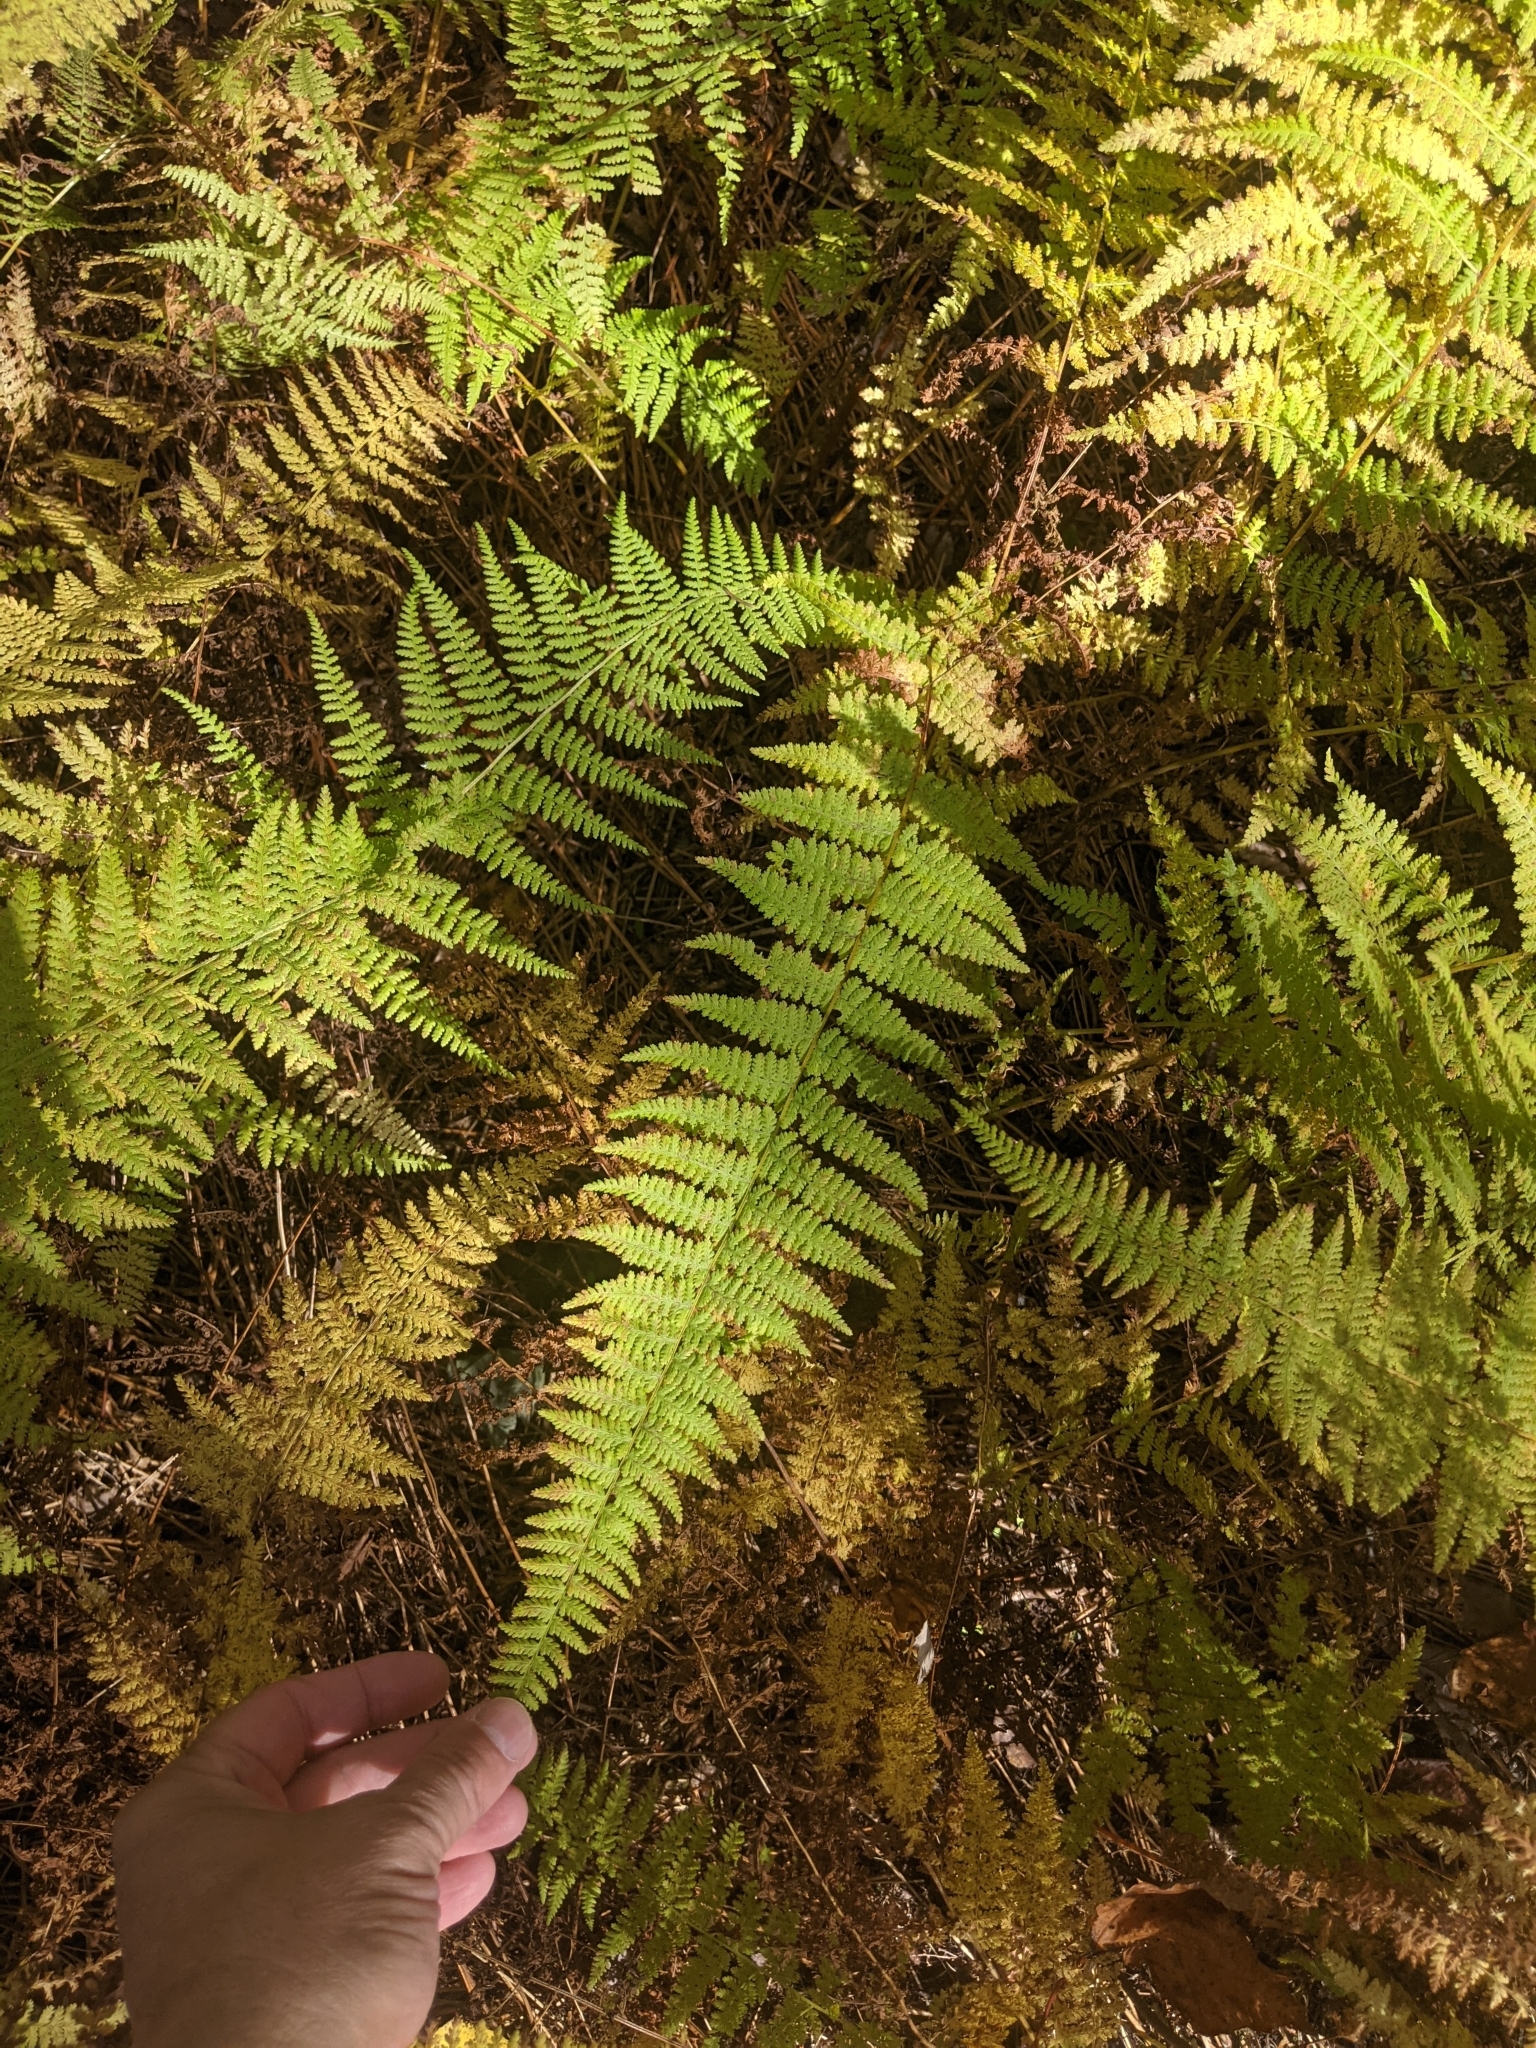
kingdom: Plantae
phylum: Tracheophyta
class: Polypodiopsida
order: Polypodiales
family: Dennstaedtiaceae
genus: Sitobolium
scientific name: Sitobolium punctilobum
